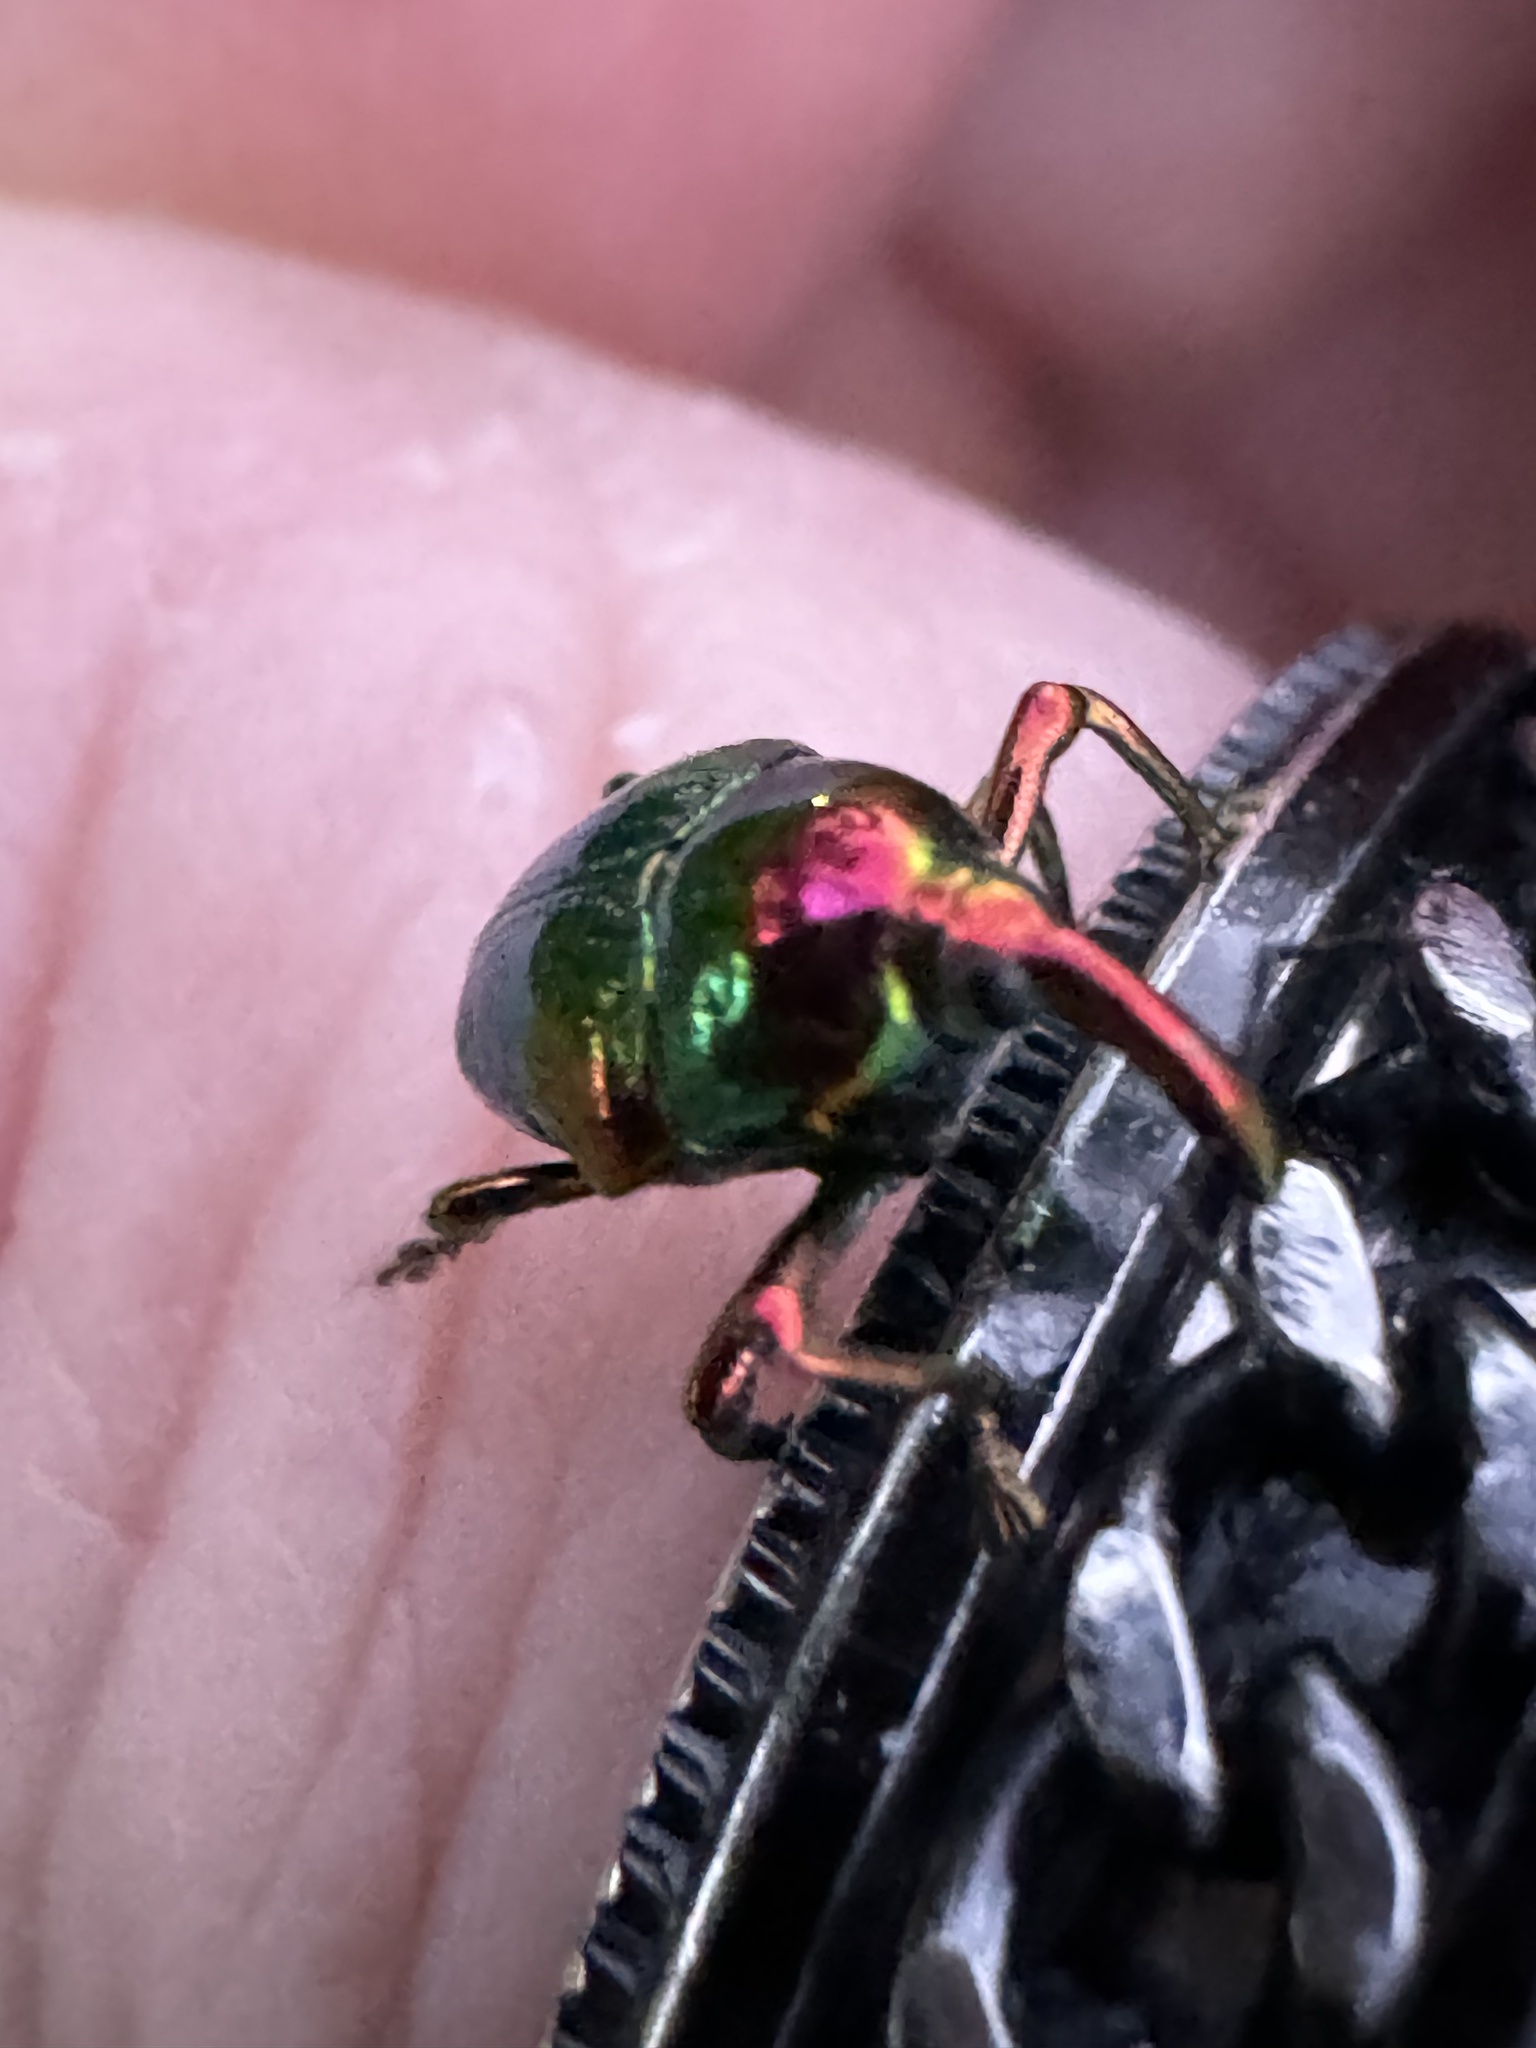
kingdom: Animalia
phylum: Arthropoda
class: Insecta
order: Coleoptera
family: Eurhynchidae
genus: Eurhinus
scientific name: Eurhinus magnificus
